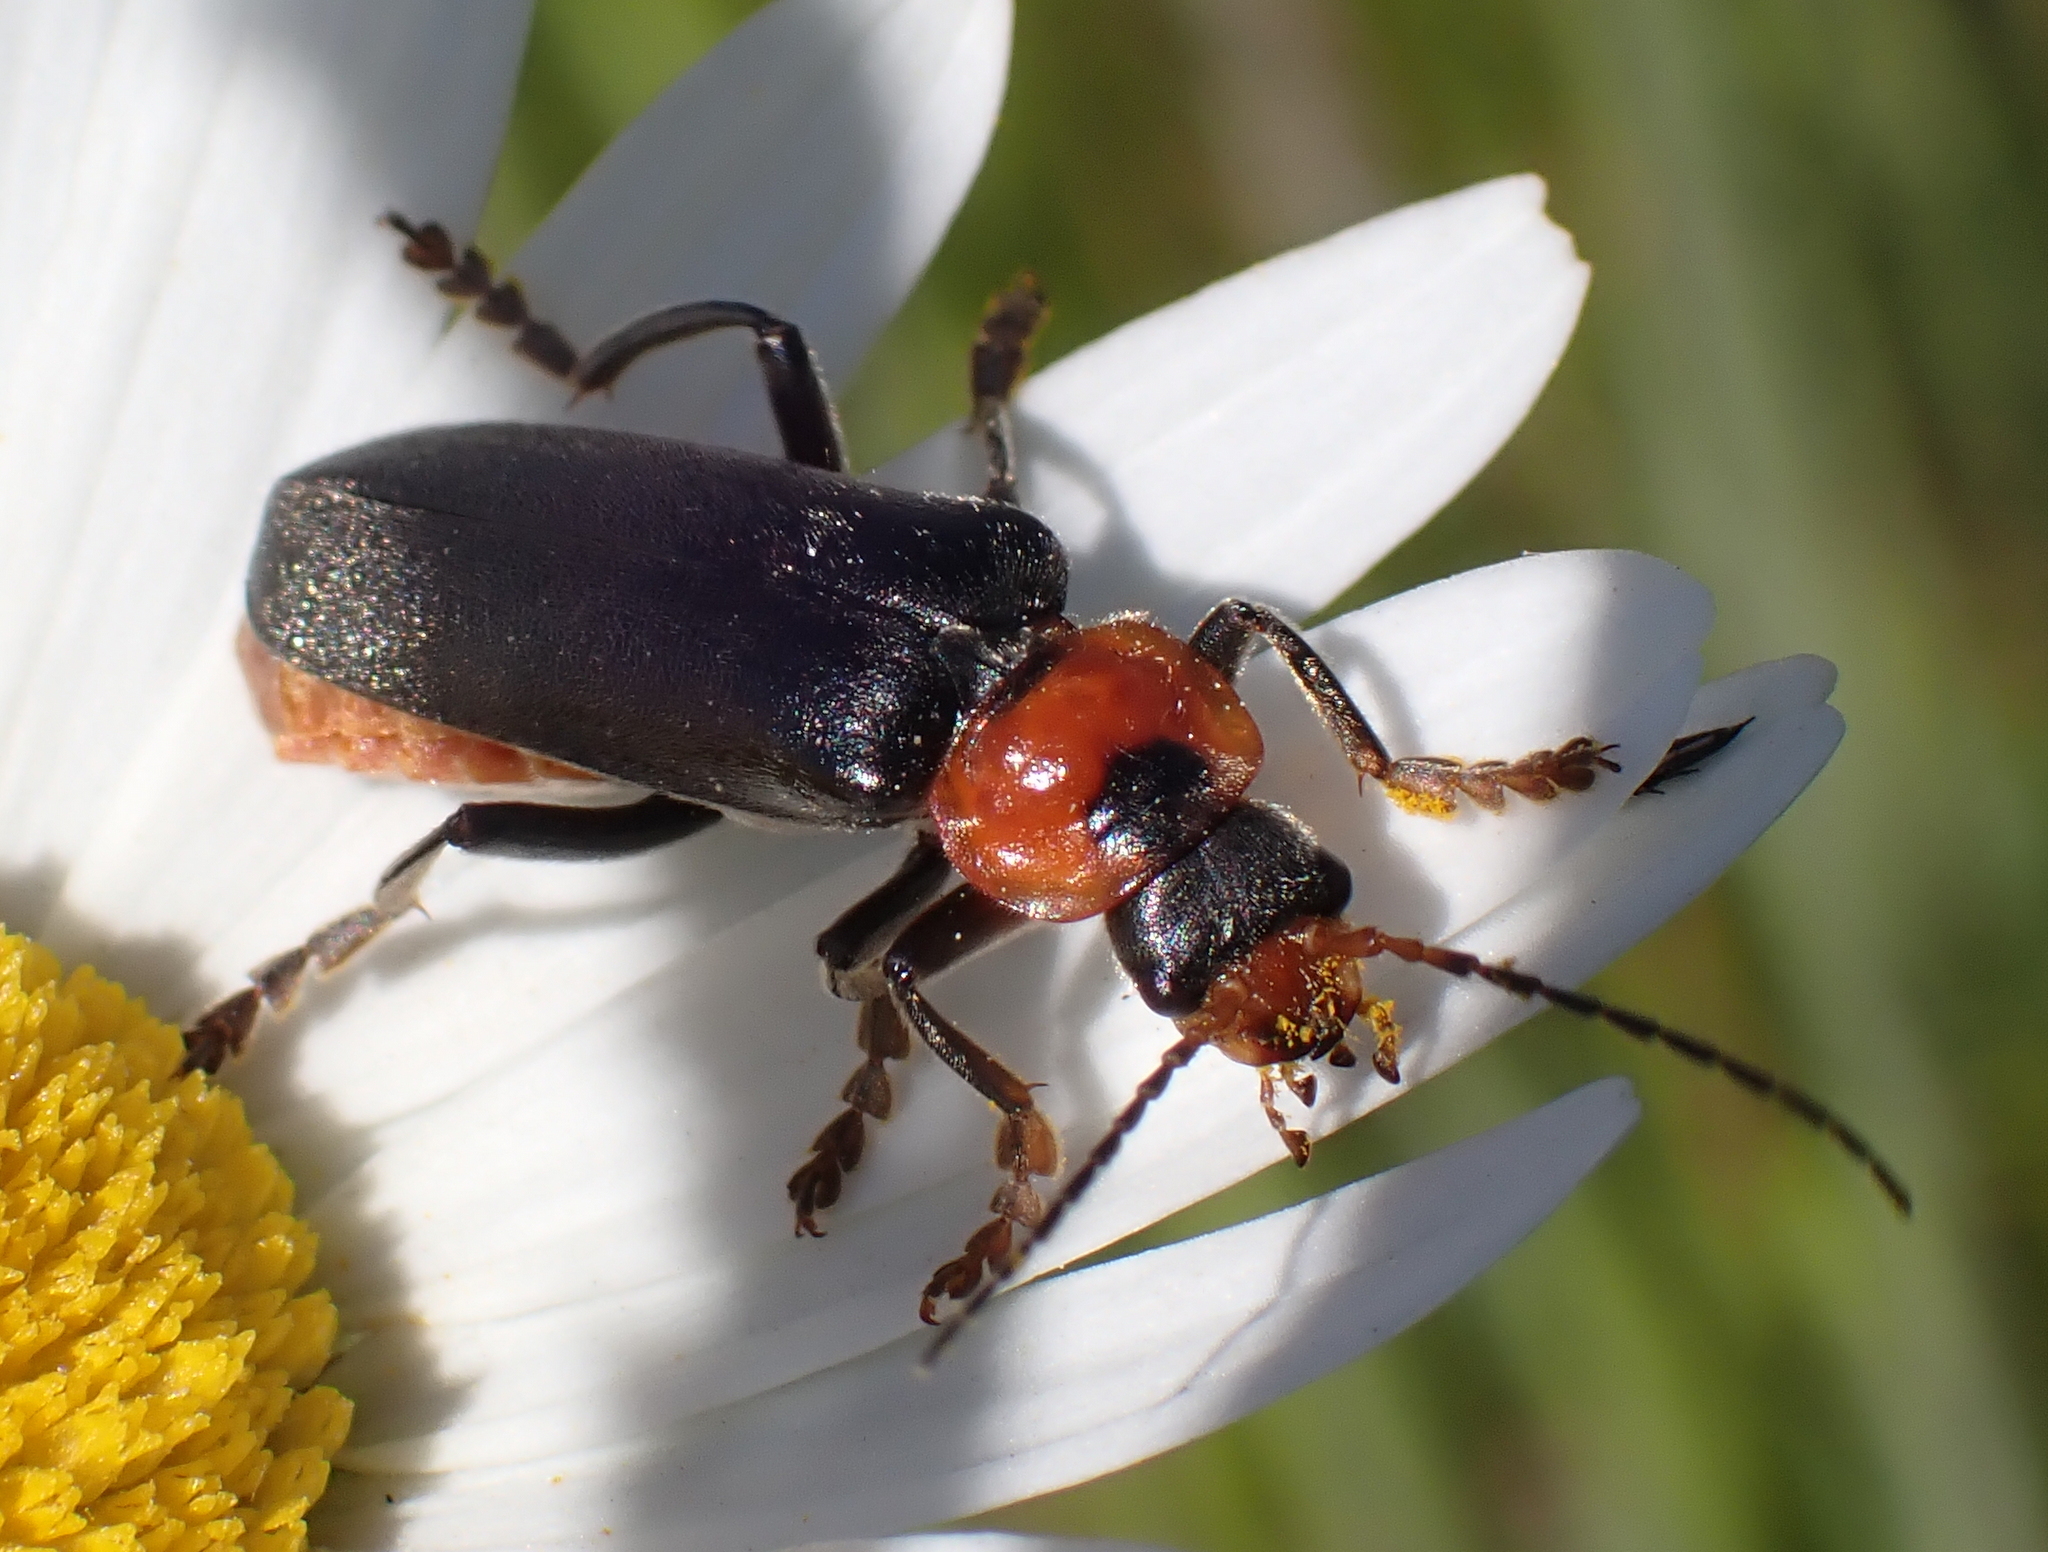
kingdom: Animalia
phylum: Arthropoda
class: Insecta
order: Coleoptera
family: Cantharidae
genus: Cantharis
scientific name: Cantharis fusca
